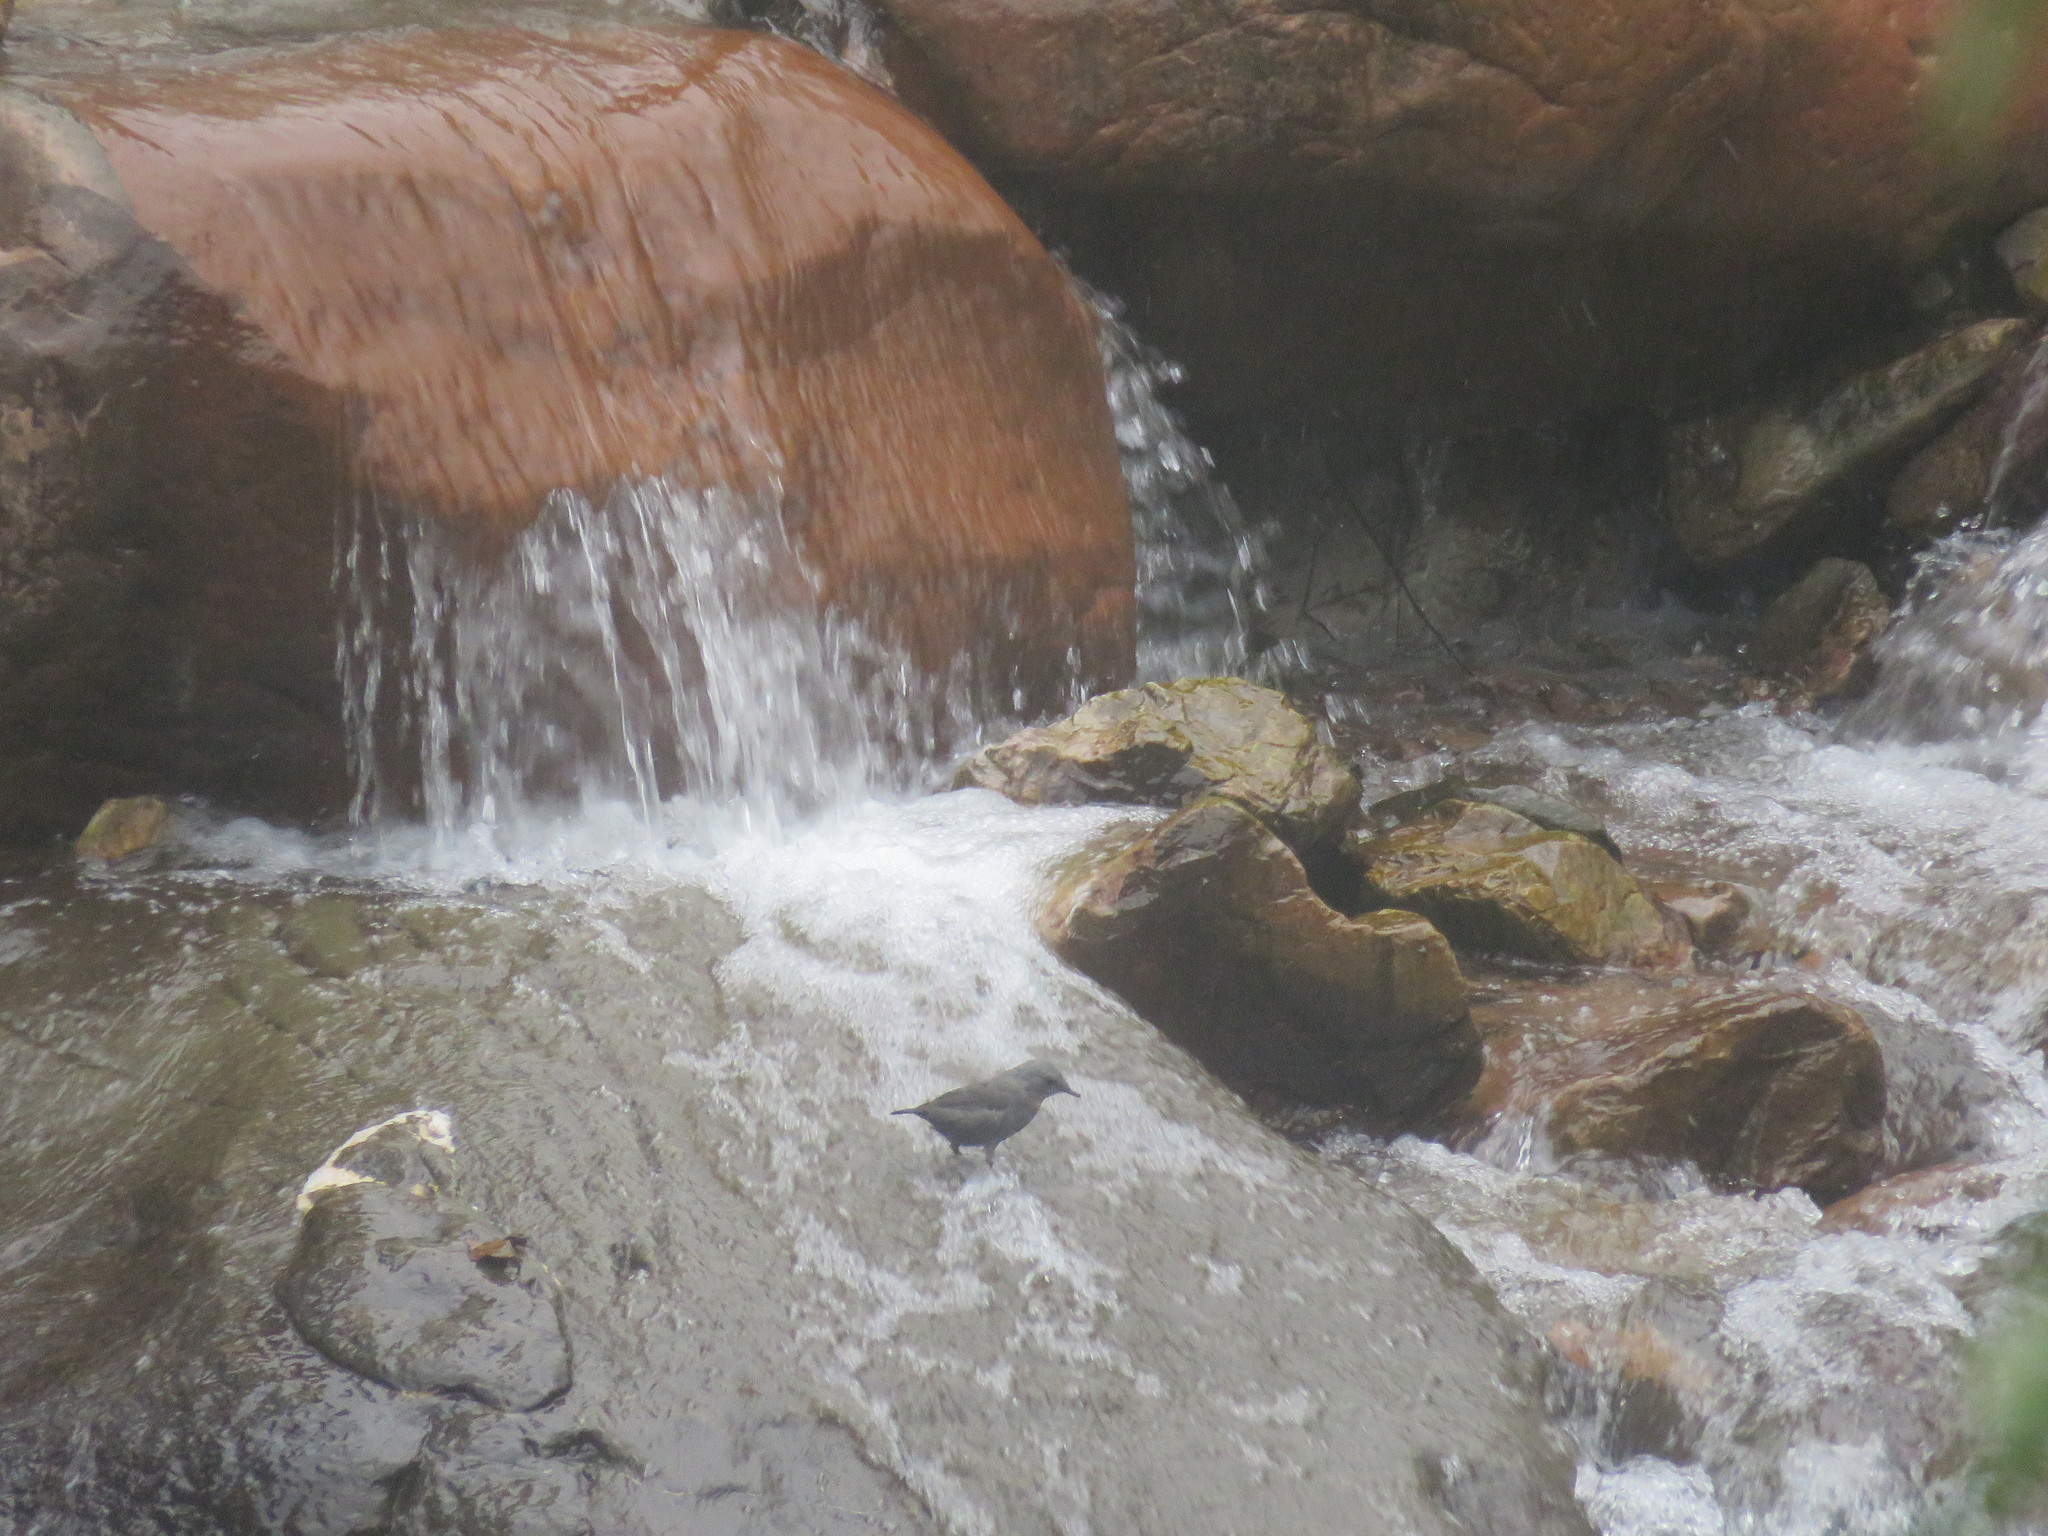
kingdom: Animalia
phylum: Chordata
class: Aves
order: Passeriformes
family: Cinclidae
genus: Cinclus
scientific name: Cinclus schulzii
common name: Rufous-throated dipper
